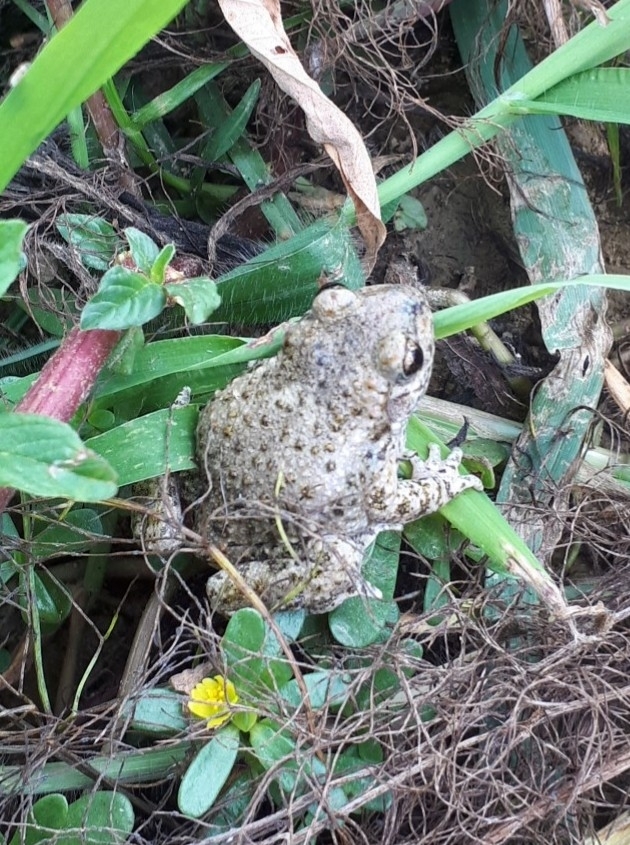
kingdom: Animalia
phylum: Chordata
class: Amphibia
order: Anura
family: Alytidae
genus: Alytes
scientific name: Alytes obstetricans
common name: Midwife toad
